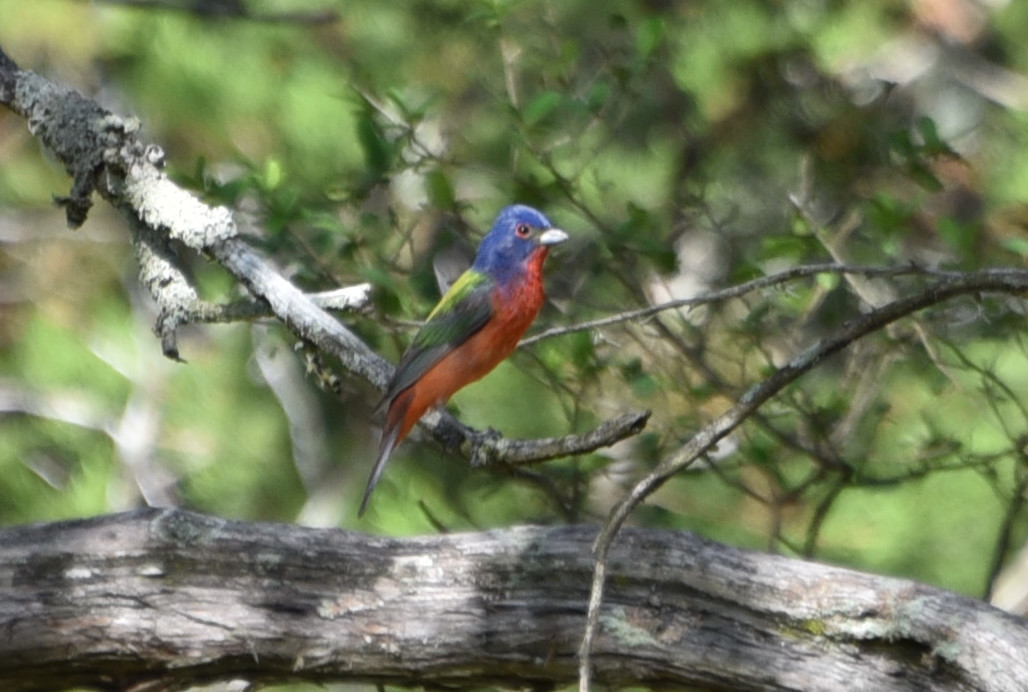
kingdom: Animalia
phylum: Chordata
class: Aves
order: Passeriformes
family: Cardinalidae
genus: Passerina
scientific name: Passerina ciris
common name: Painted bunting
